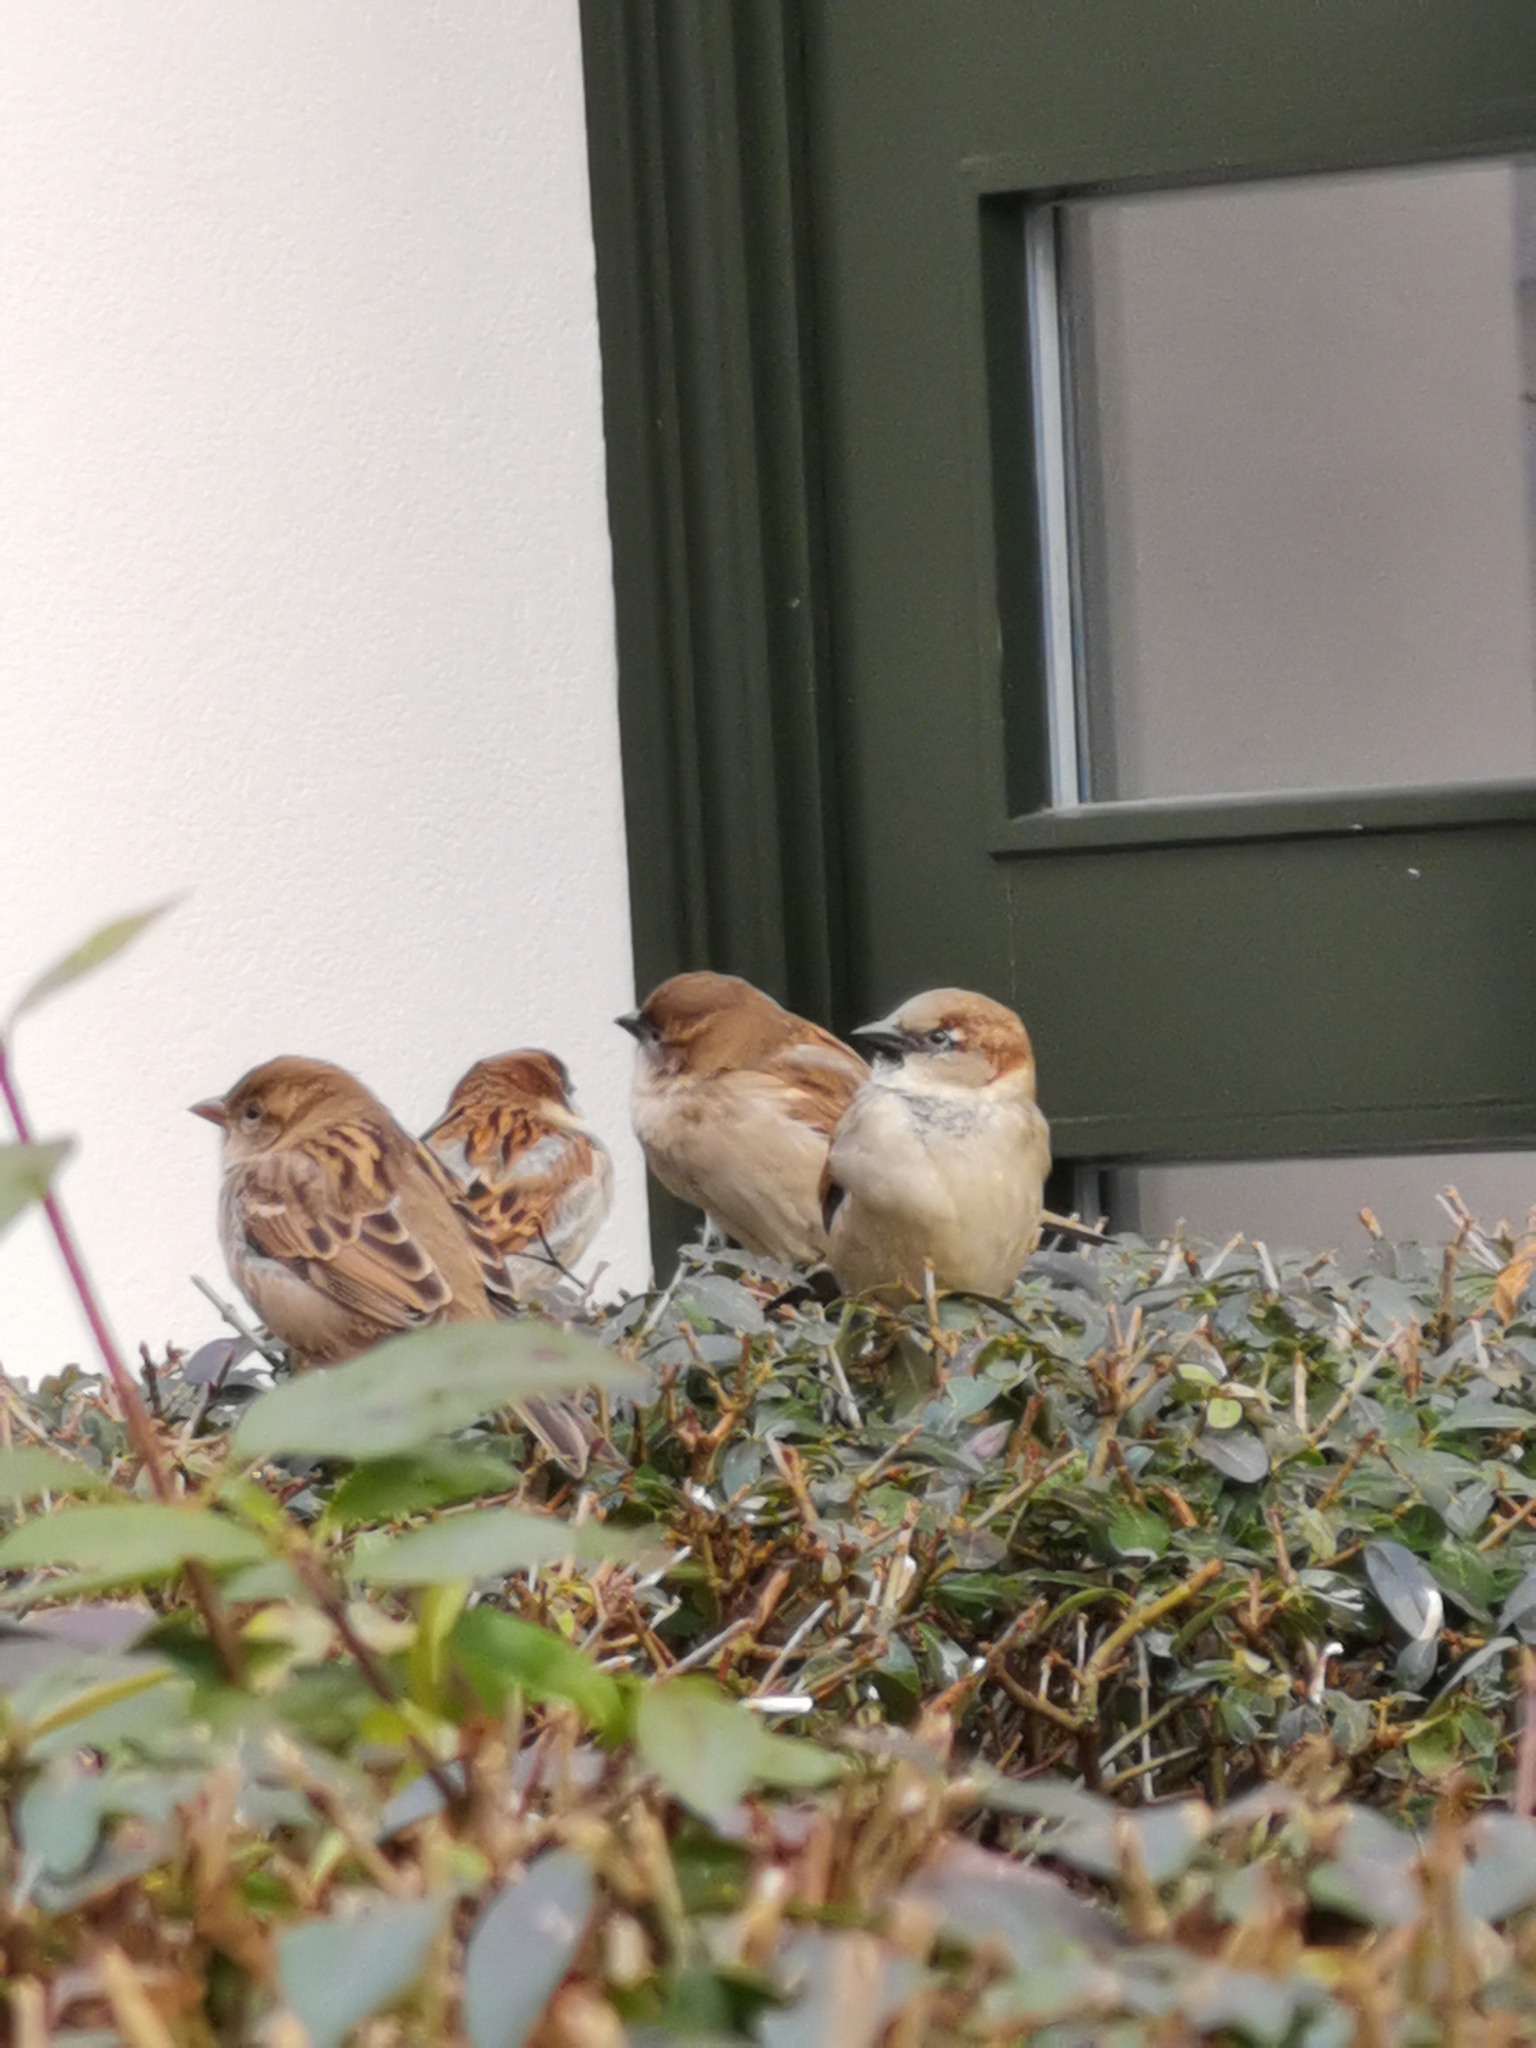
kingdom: Animalia
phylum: Chordata
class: Aves
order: Passeriformes
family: Passeridae
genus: Passer
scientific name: Passer domesticus
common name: House sparrow
